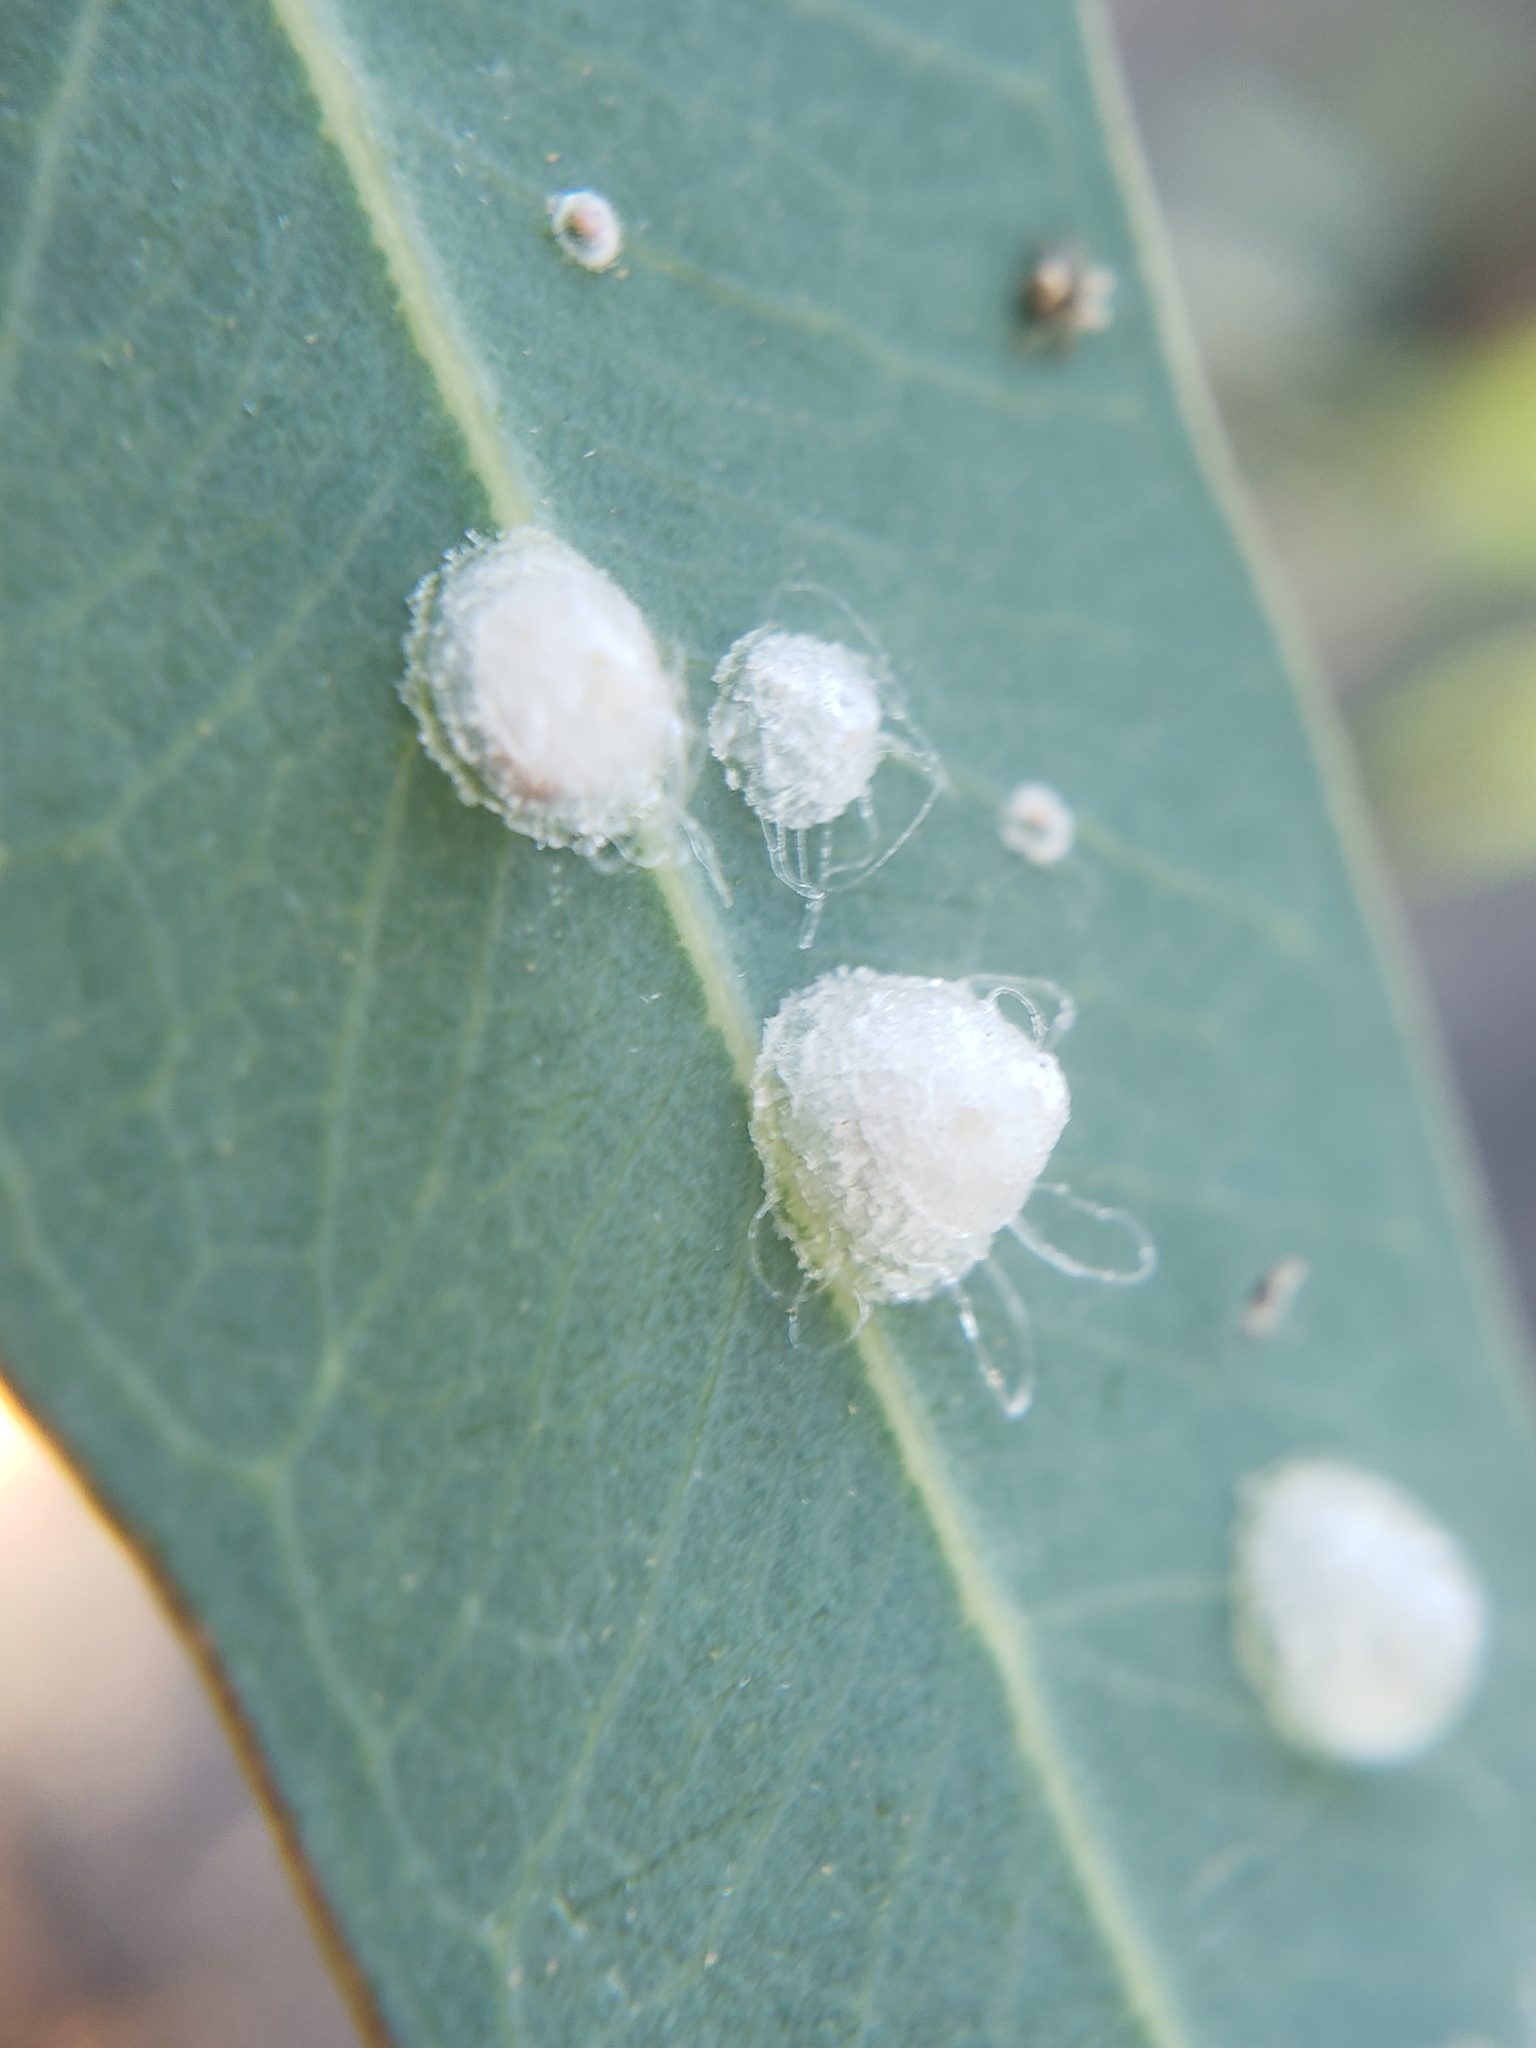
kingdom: Animalia
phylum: Arthropoda
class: Insecta
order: Hemiptera
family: Aphalaridae
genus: Glycaspis
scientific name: Glycaspis brimblecombei
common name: Red gum lerp psyllid
